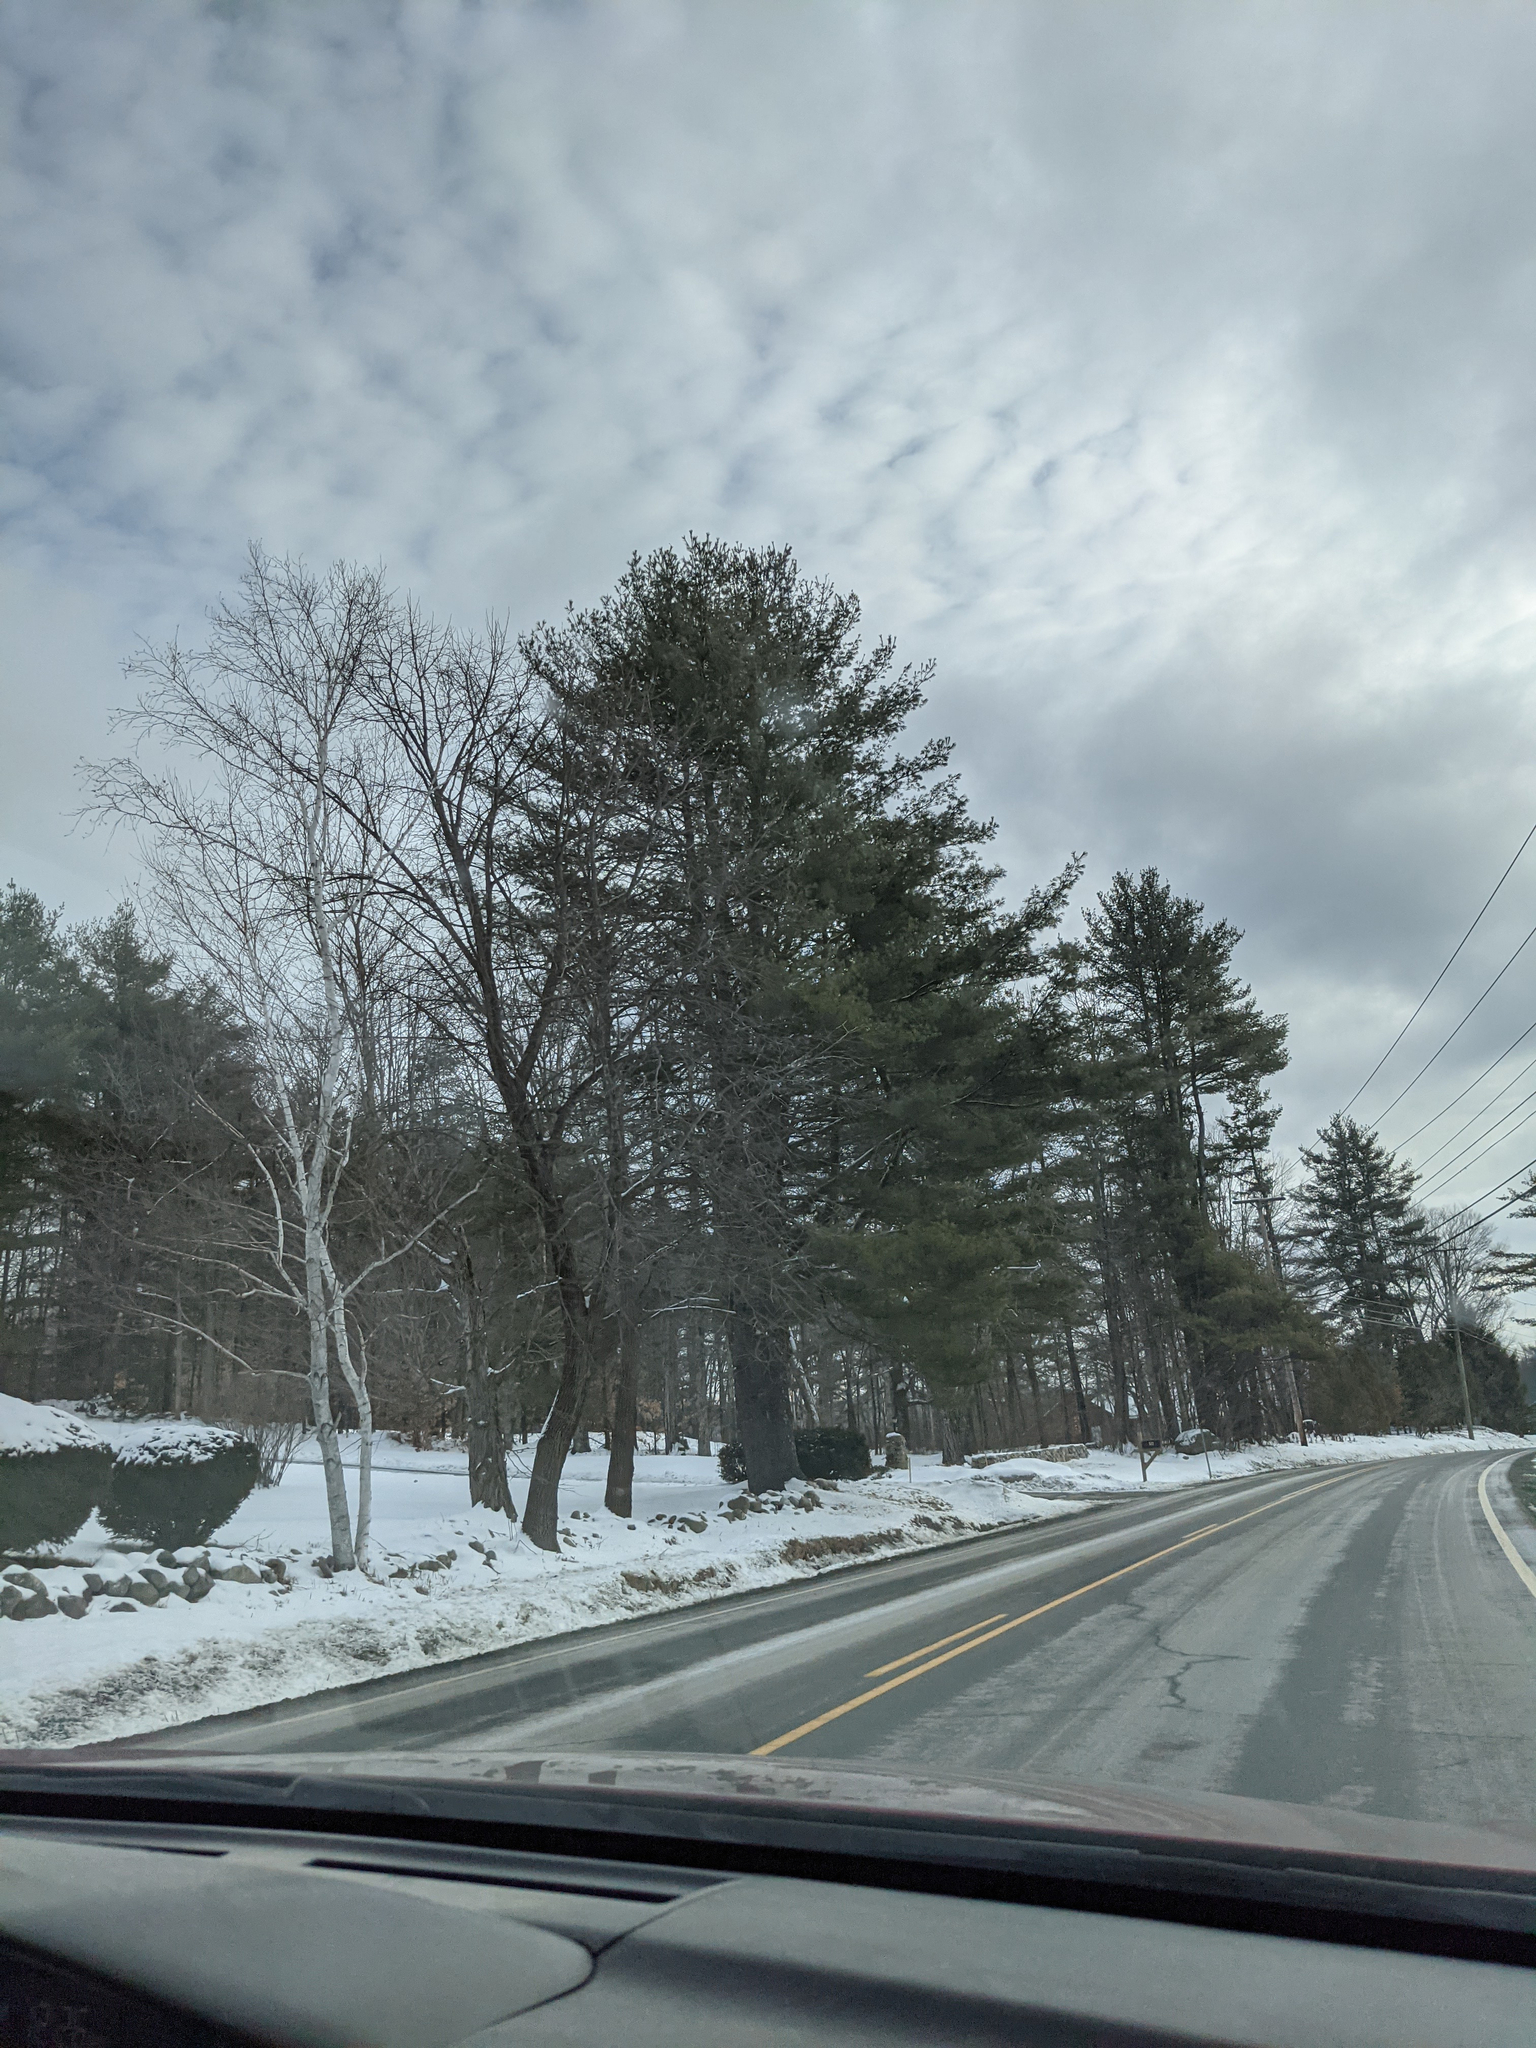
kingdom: Plantae
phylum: Tracheophyta
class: Pinopsida
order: Pinales
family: Pinaceae
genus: Pinus
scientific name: Pinus strobus
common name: Weymouth pine
